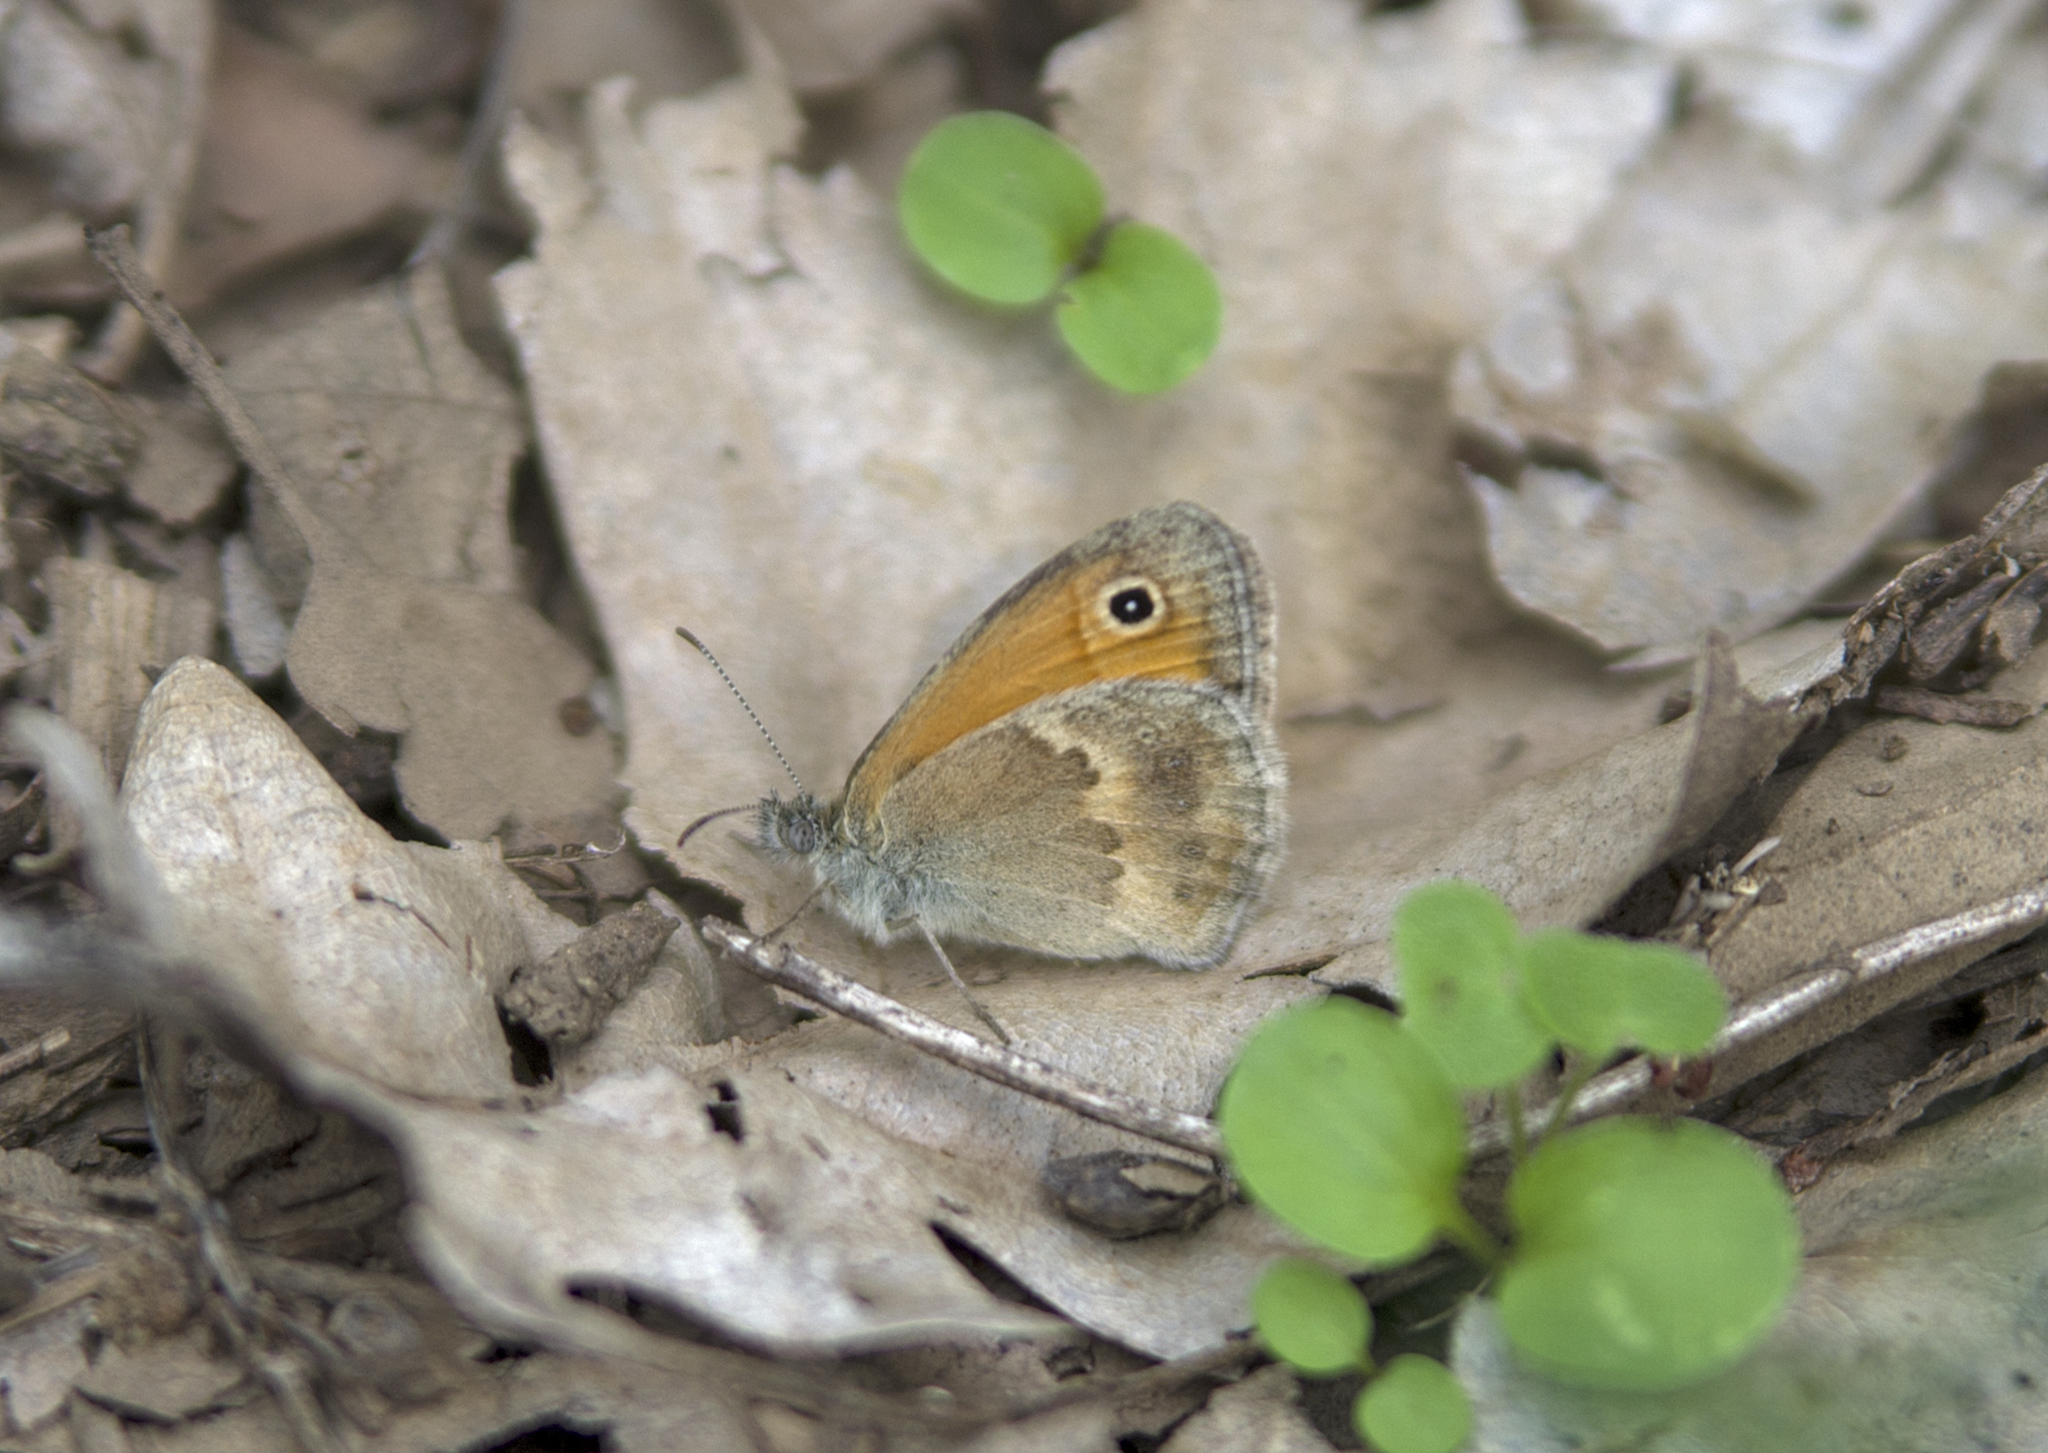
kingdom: Animalia
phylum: Arthropoda
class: Insecta
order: Lepidoptera
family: Nymphalidae
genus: Coenonympha
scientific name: Coenonympha pamphilus
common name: Small heath
